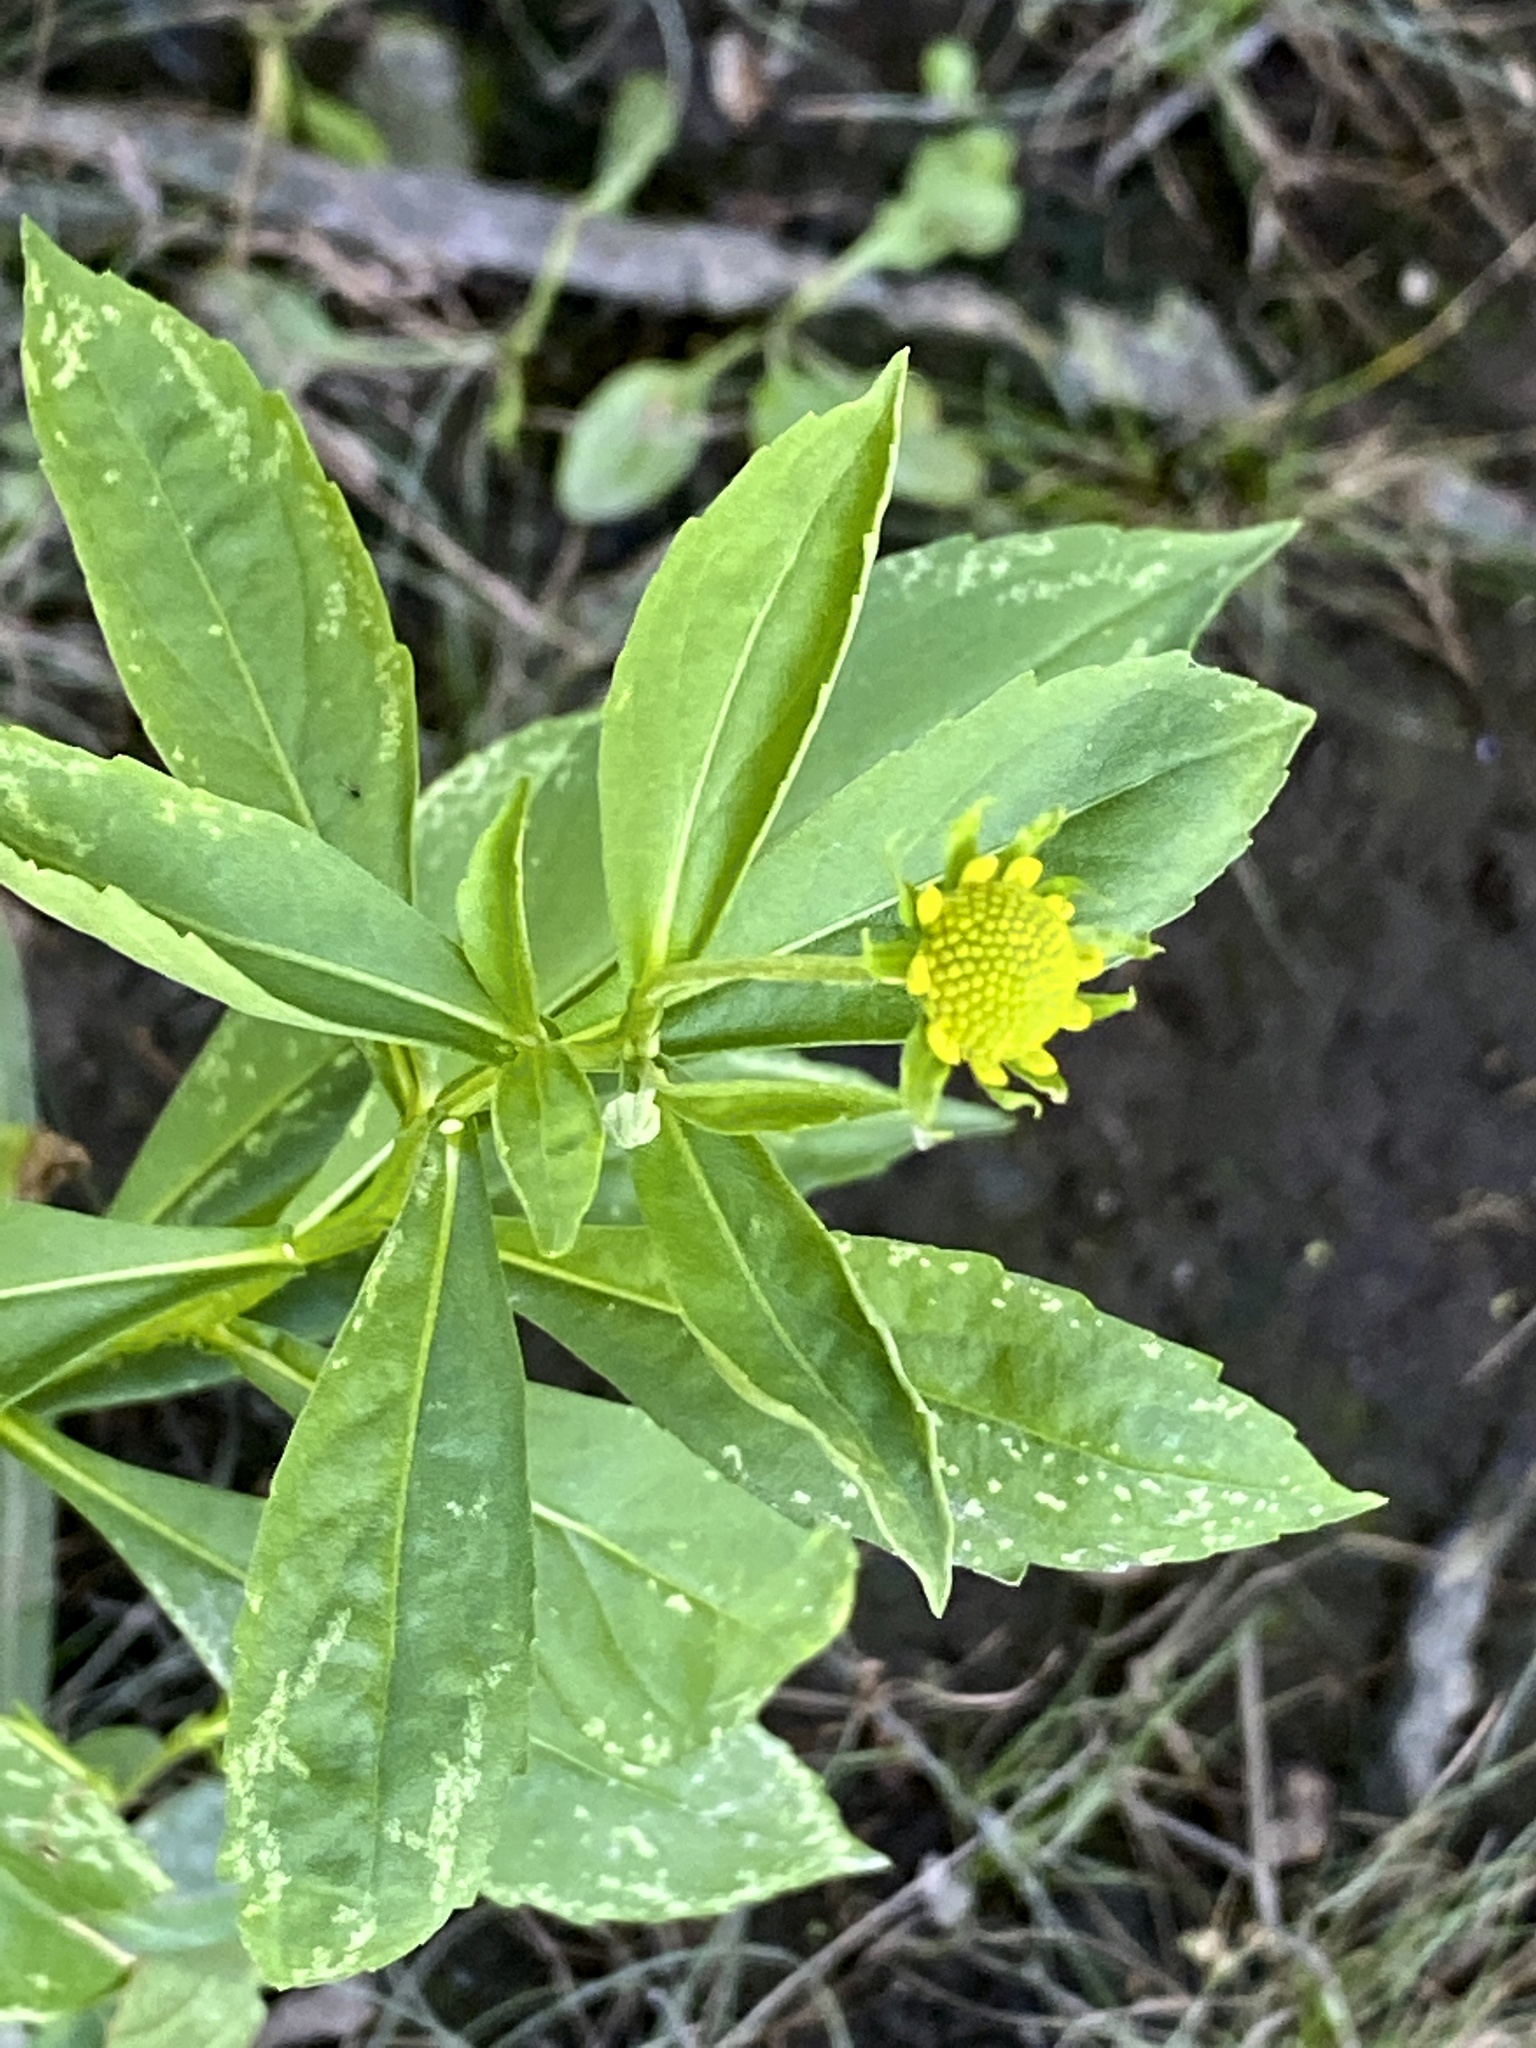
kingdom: Plantae
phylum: Tracheophyta
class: Magnoliopsida
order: Asterales
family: Asteraceae
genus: Helenium
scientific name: Helenium autumnale
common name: Sneezeweed
